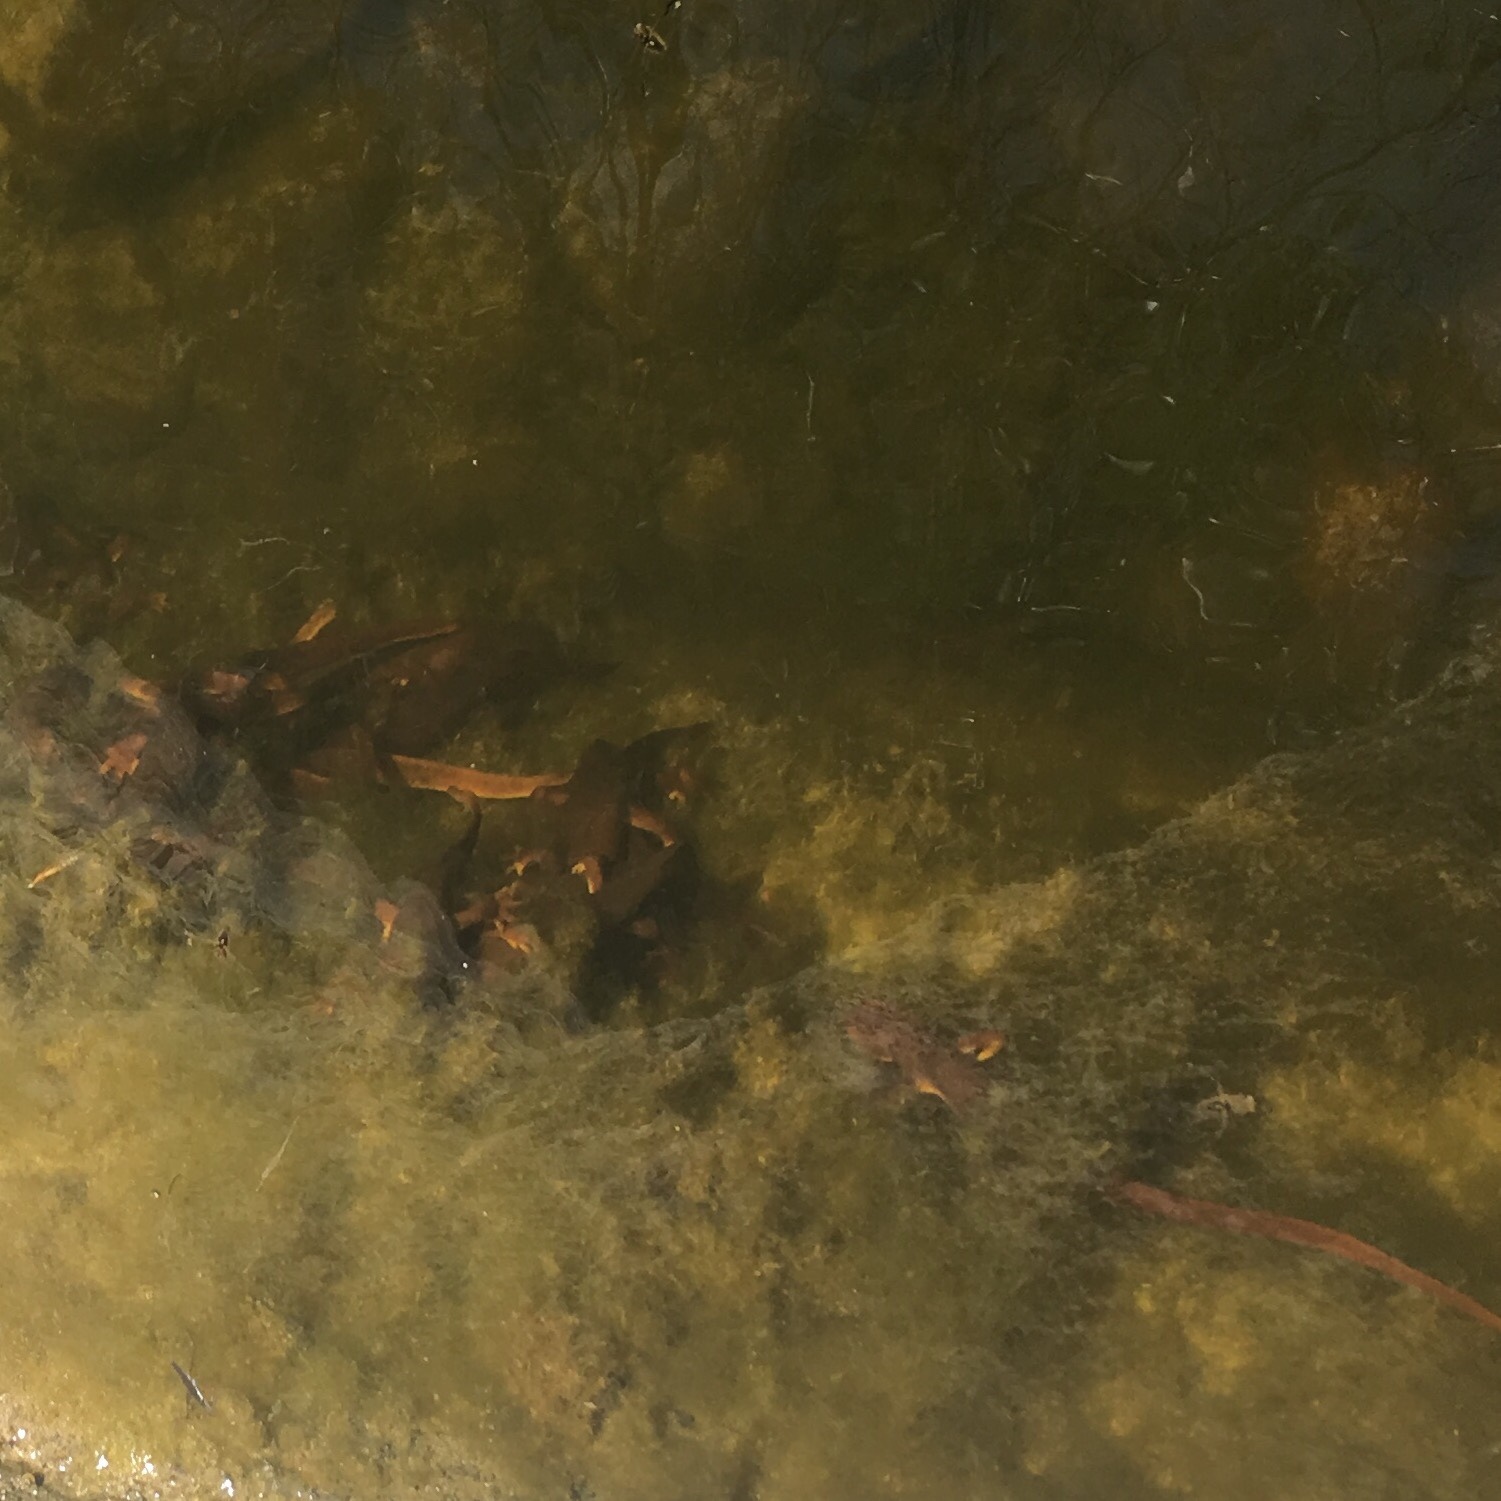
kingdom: Animalia
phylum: Chordata
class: Amphibia
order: Caudata
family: Salamandridae
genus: Taricha
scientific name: Taricha torosa
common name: California newt
